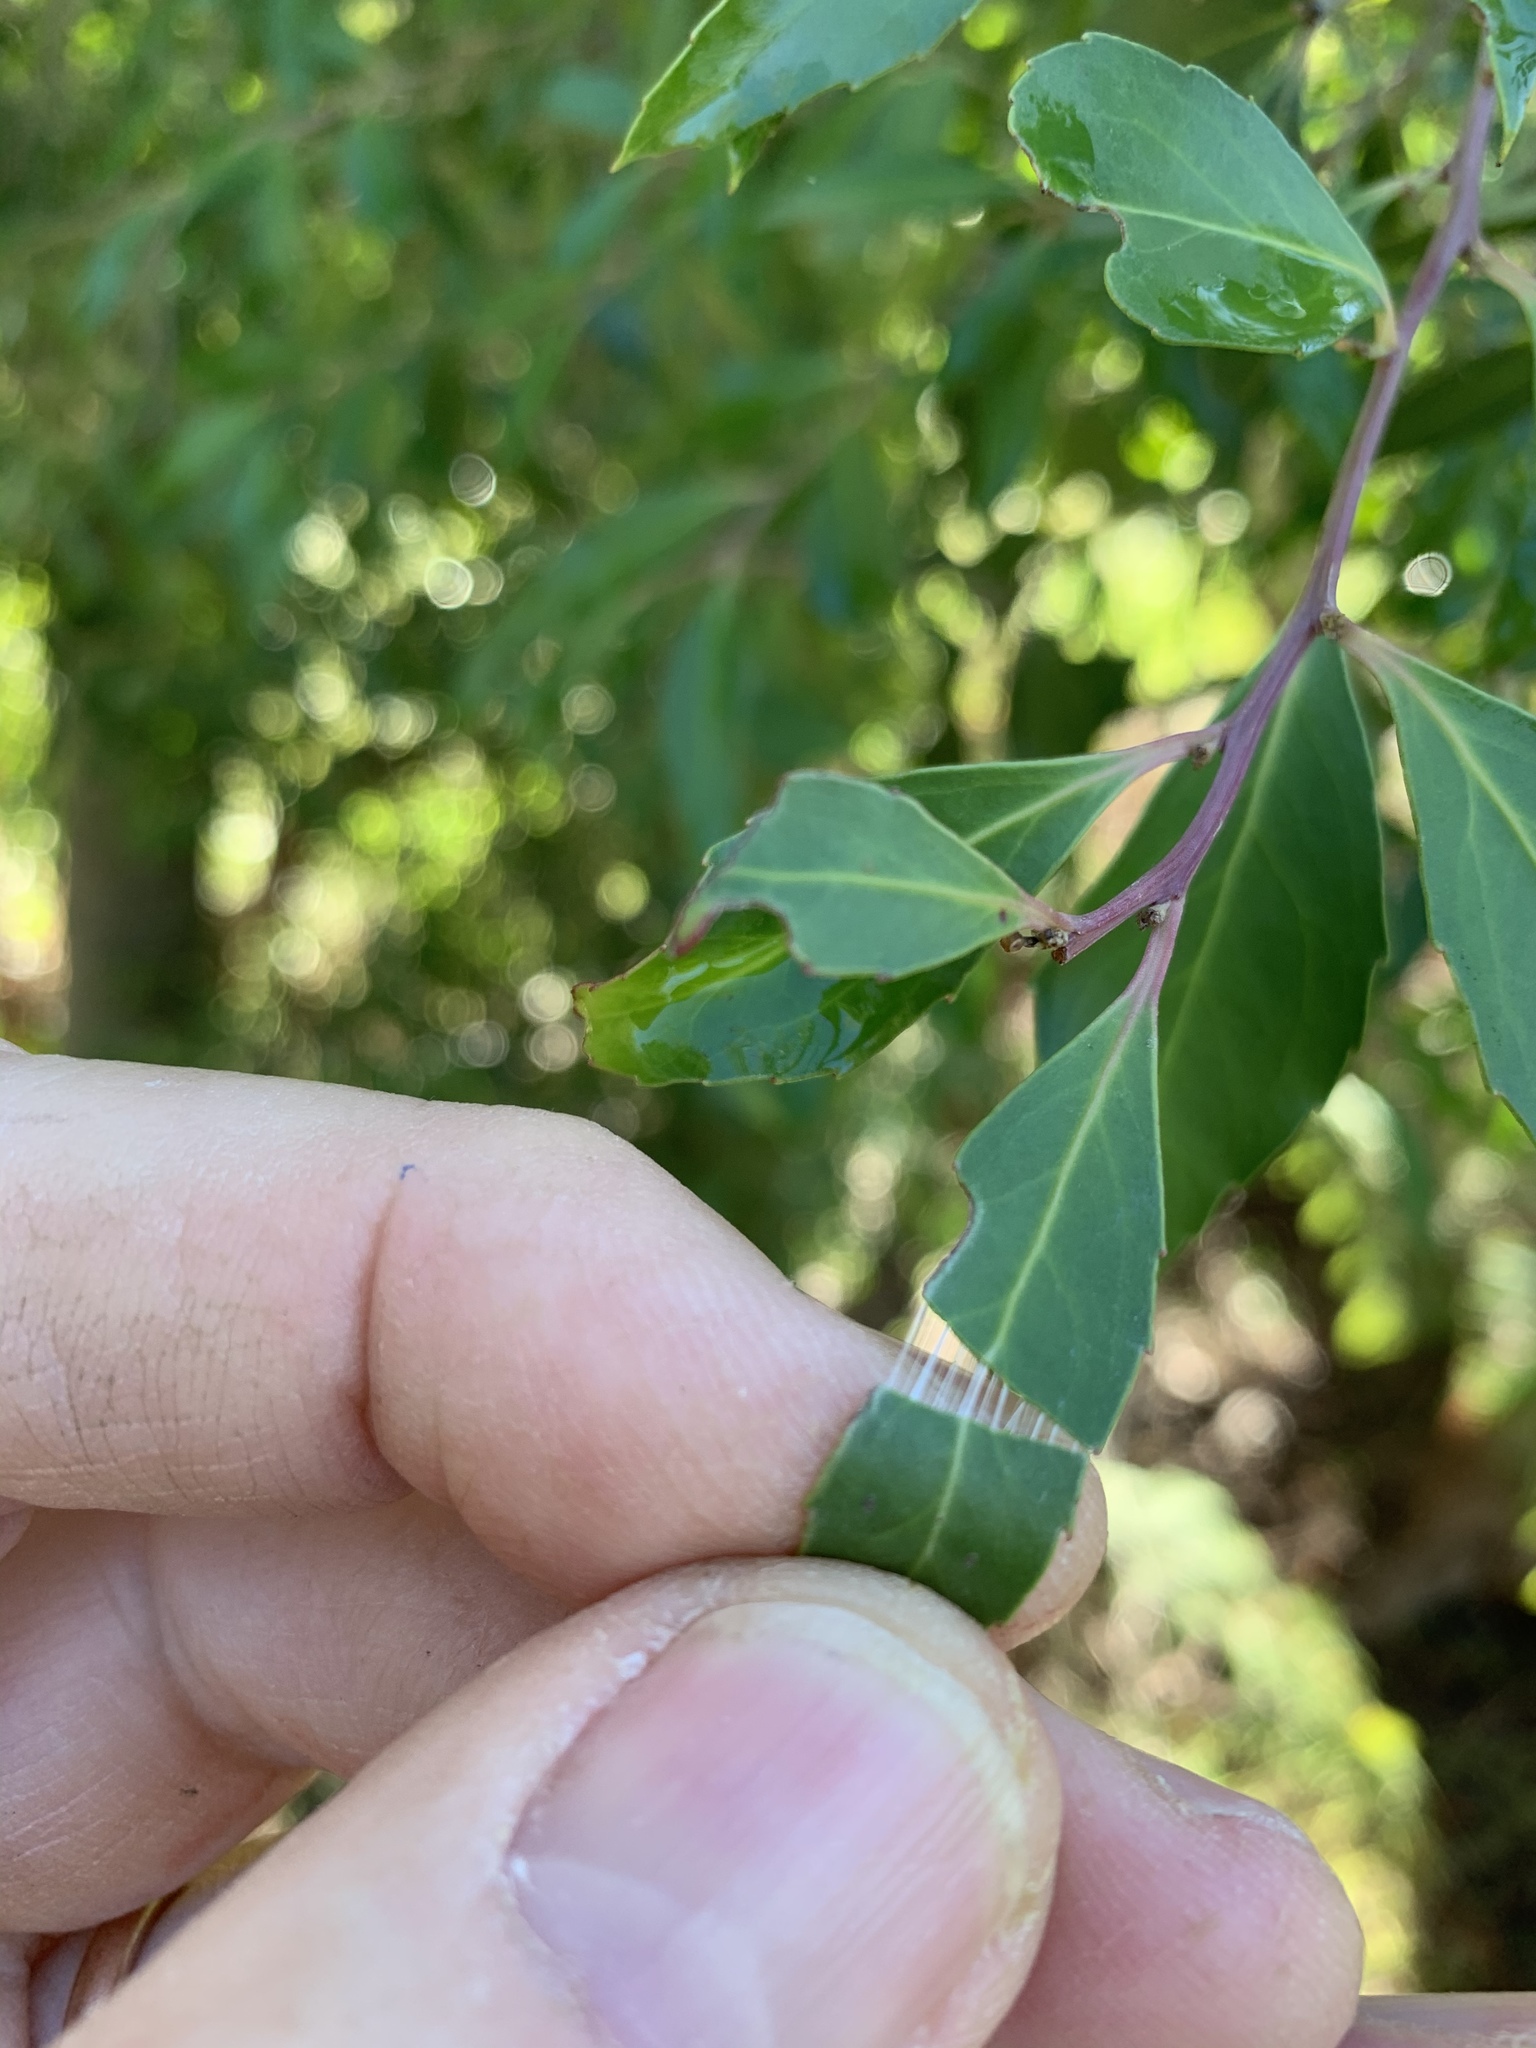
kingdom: Plantae
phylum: Tracheophyta
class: Magnoliopsida
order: Celastrales
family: Celastraceae
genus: Gymnosporia
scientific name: Gymnosporia acuminata
